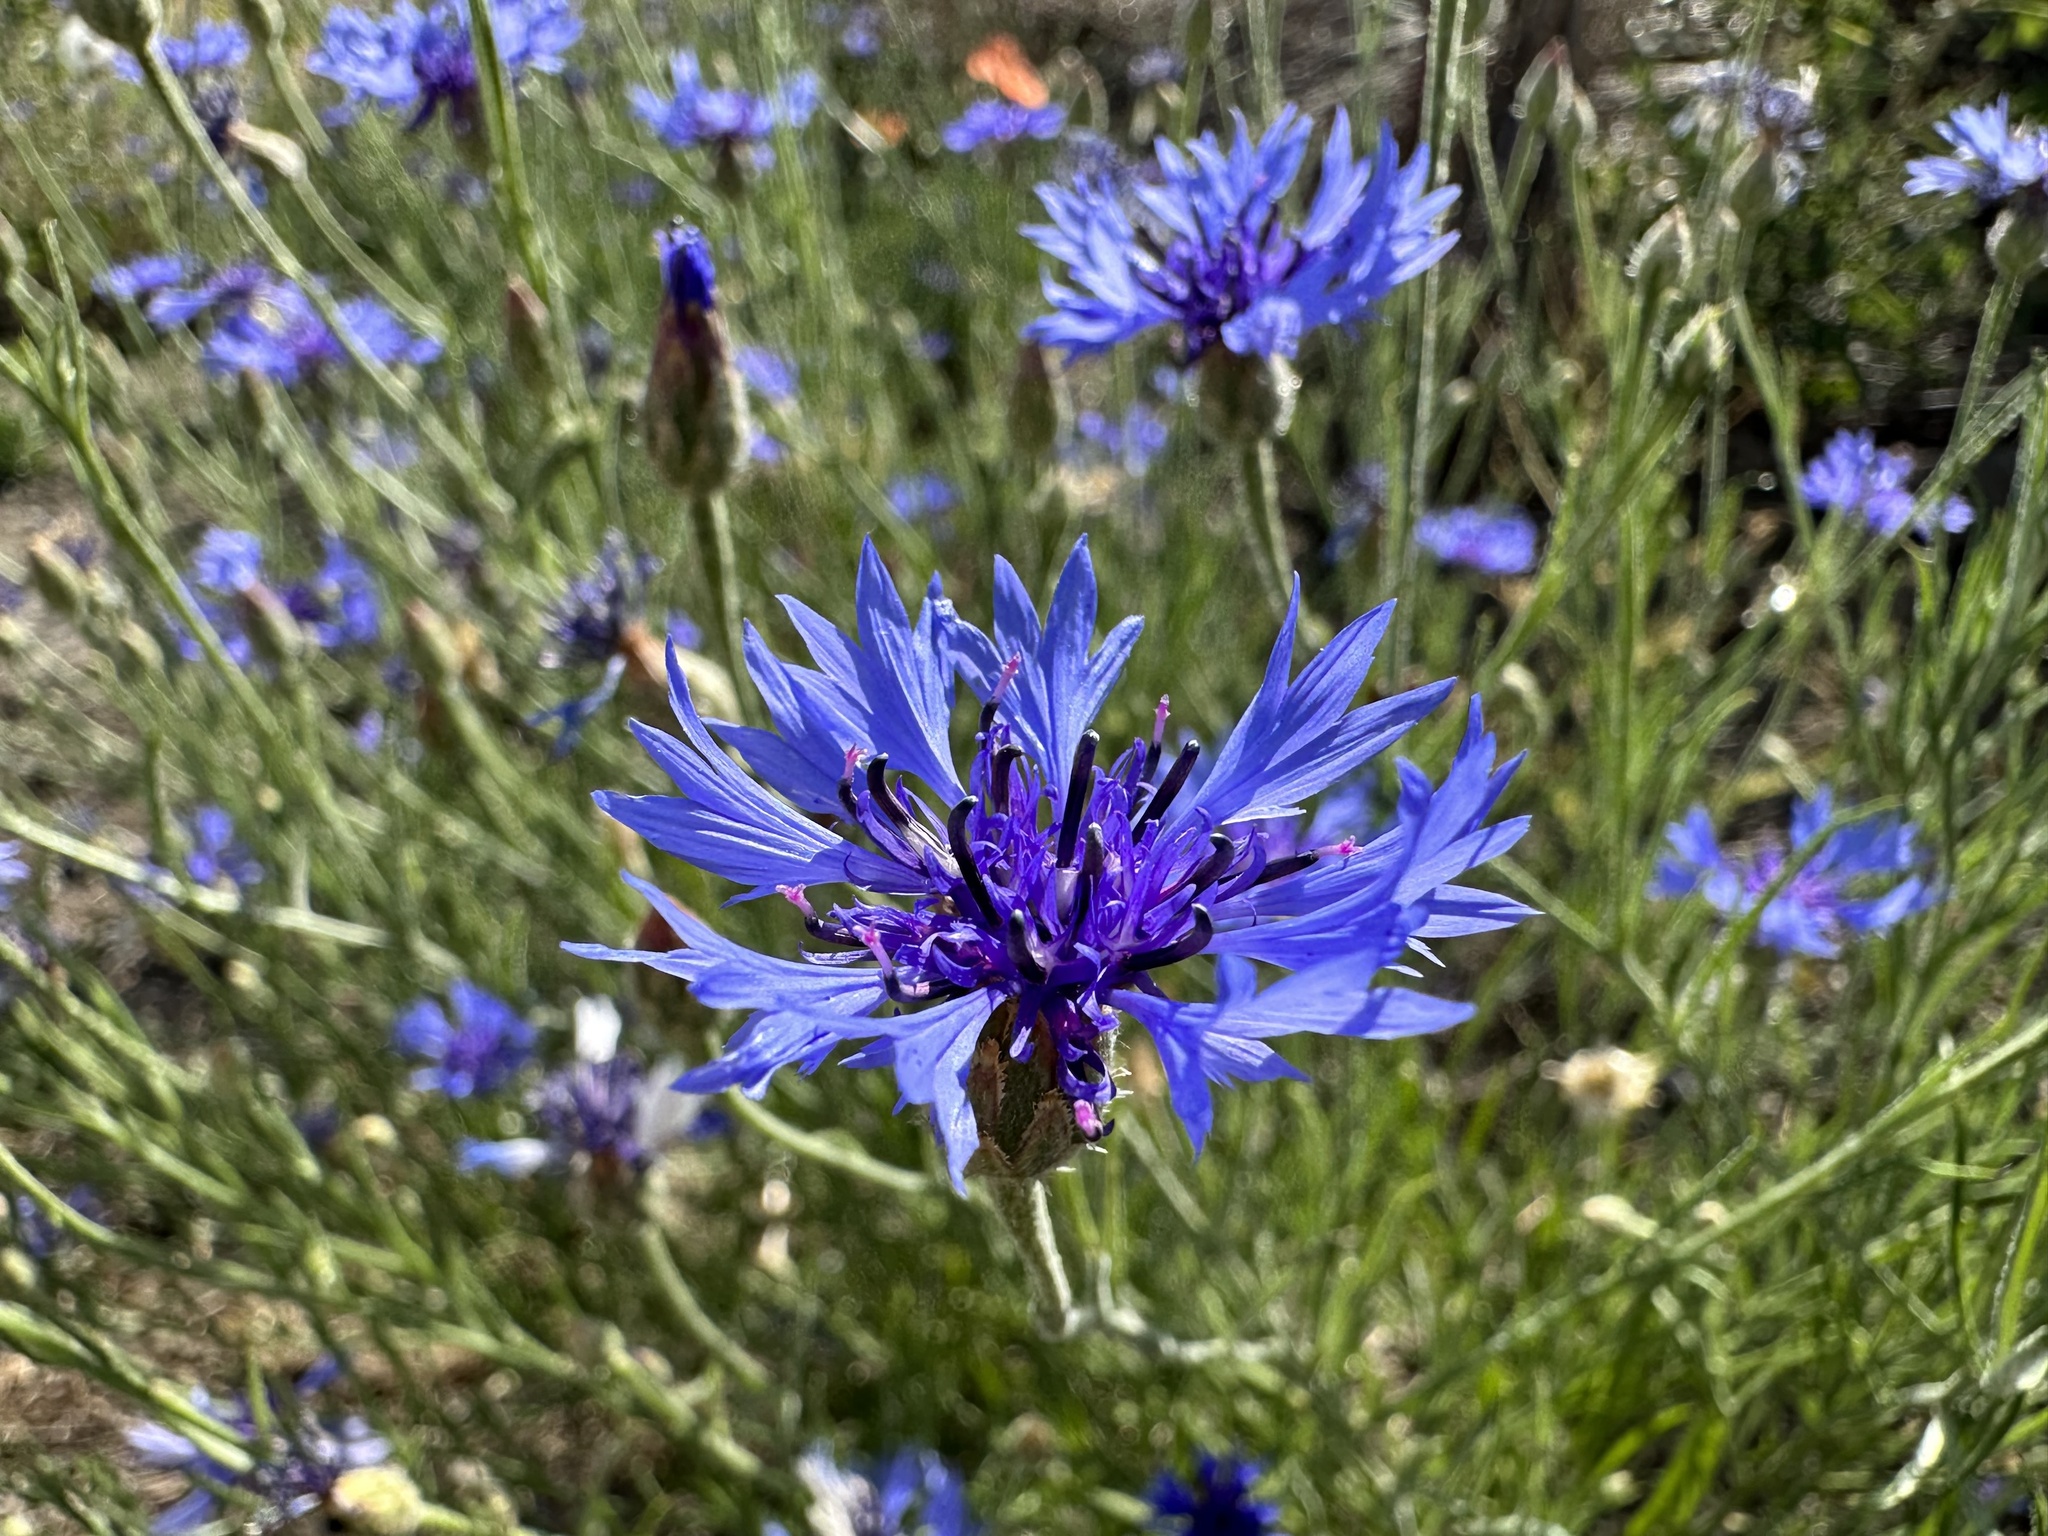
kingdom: Plantae
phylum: Tracheophyta
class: Magnoliopsida
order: Asterales
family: Asteraceae
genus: Centaurea
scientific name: Centaurea cyanus
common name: Cornflower
